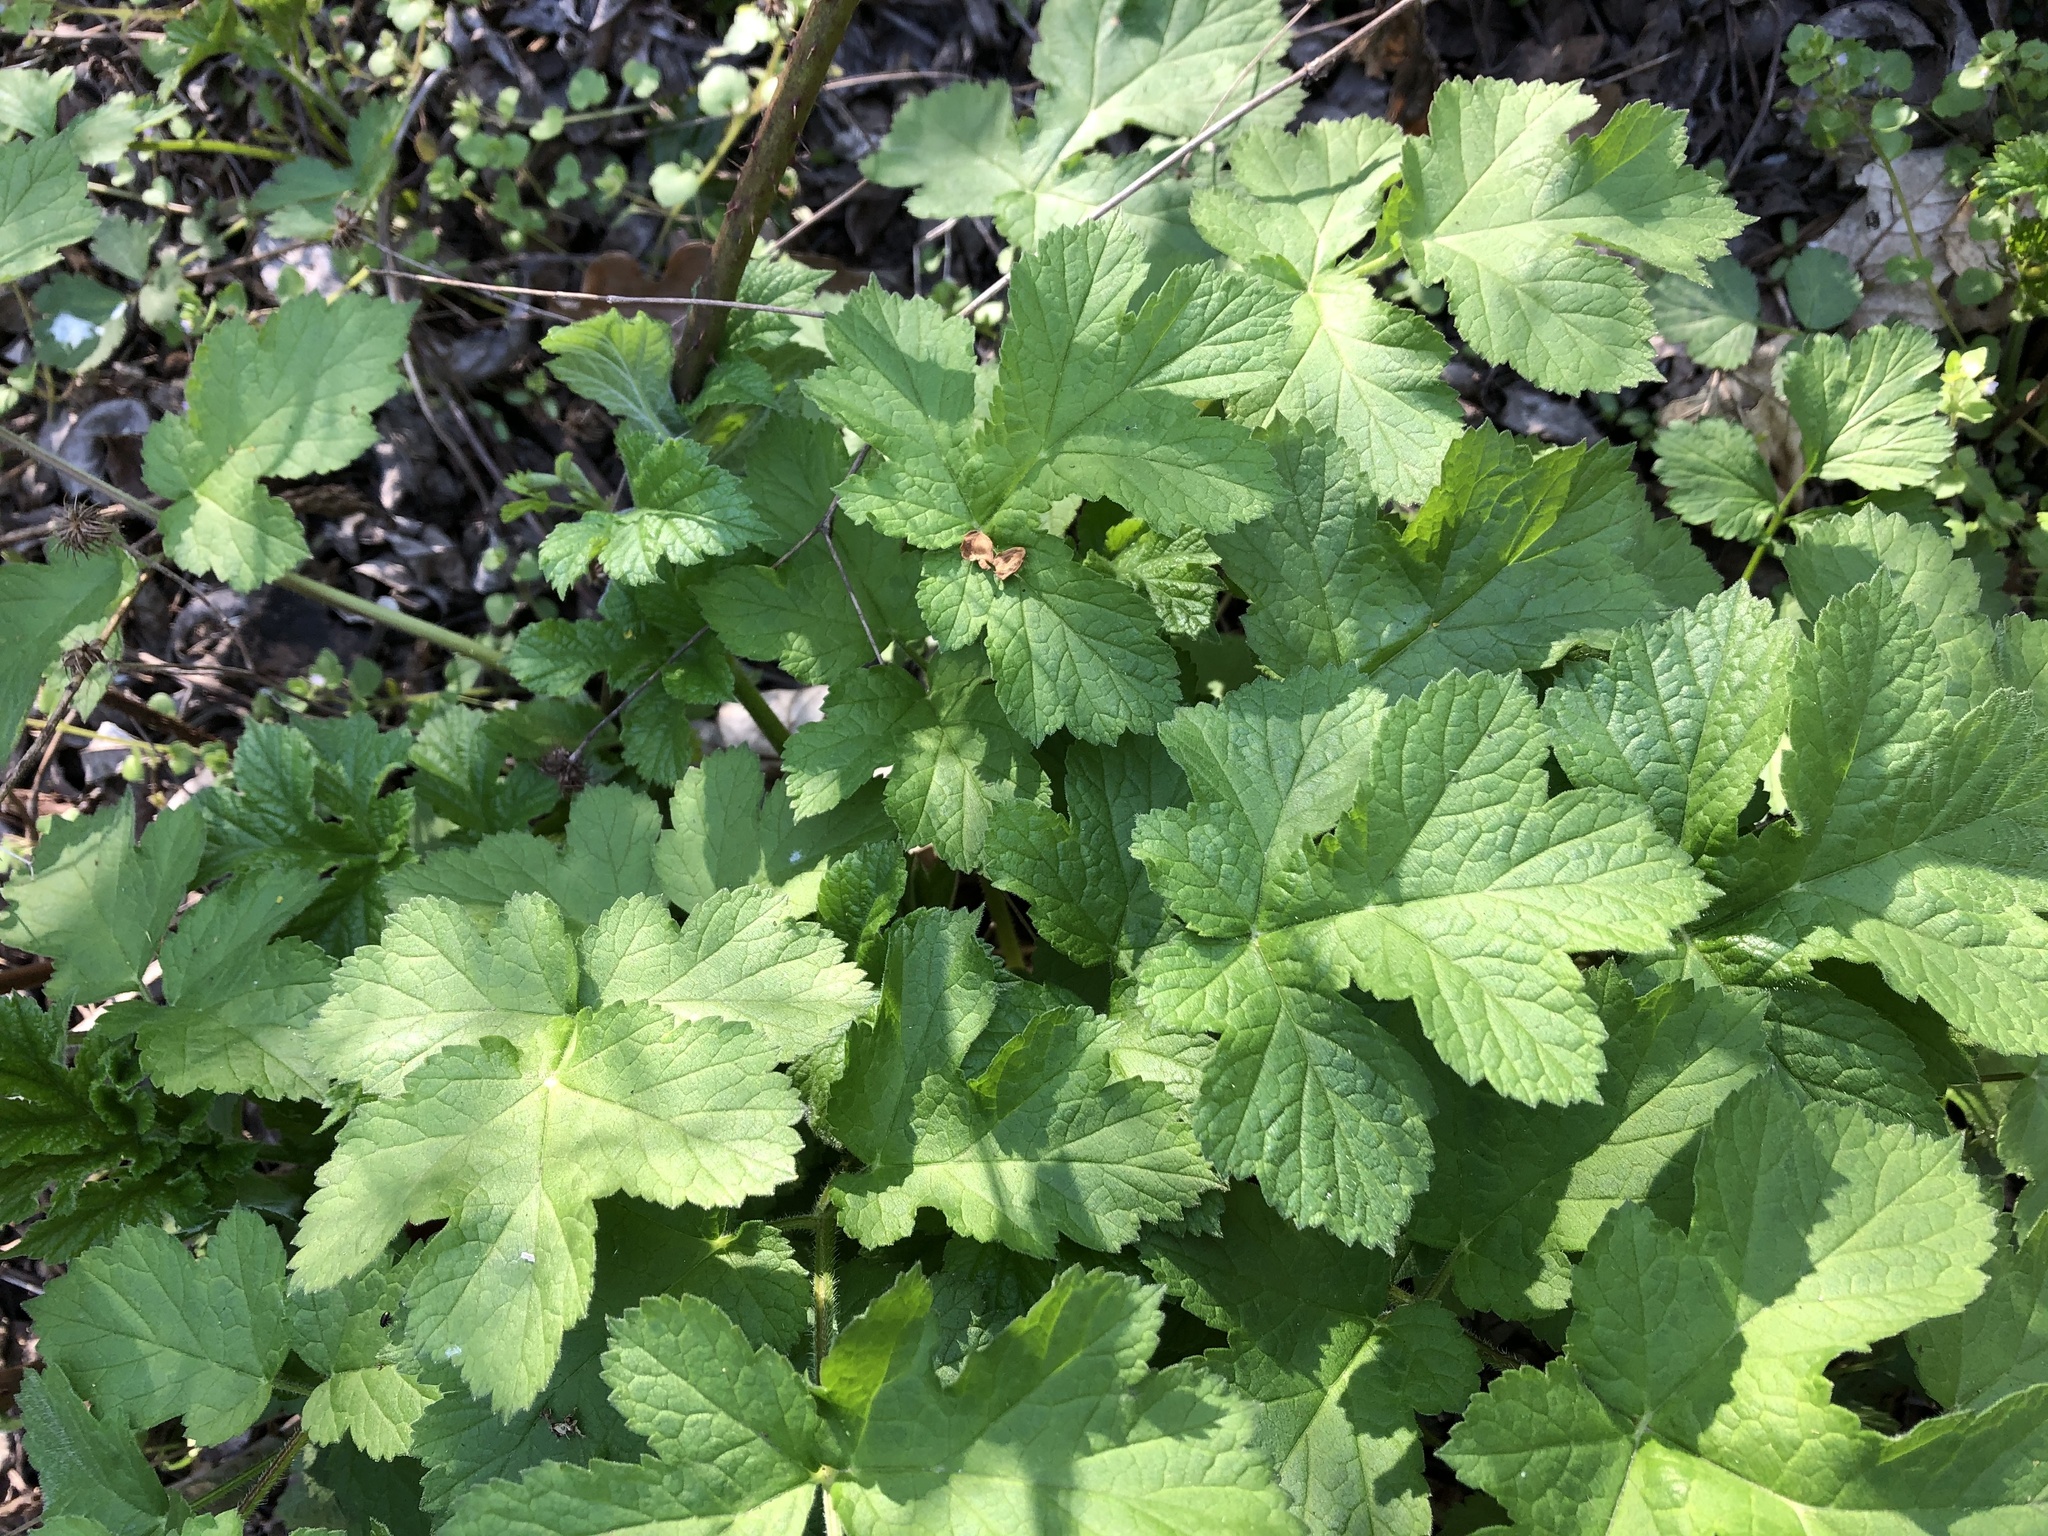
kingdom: Plantae
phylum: Tracheophyta
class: Magnoliopsida
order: Apiales
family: Apiaceae
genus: Heracleum
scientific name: Heracleum sphondylium
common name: Hogweed
